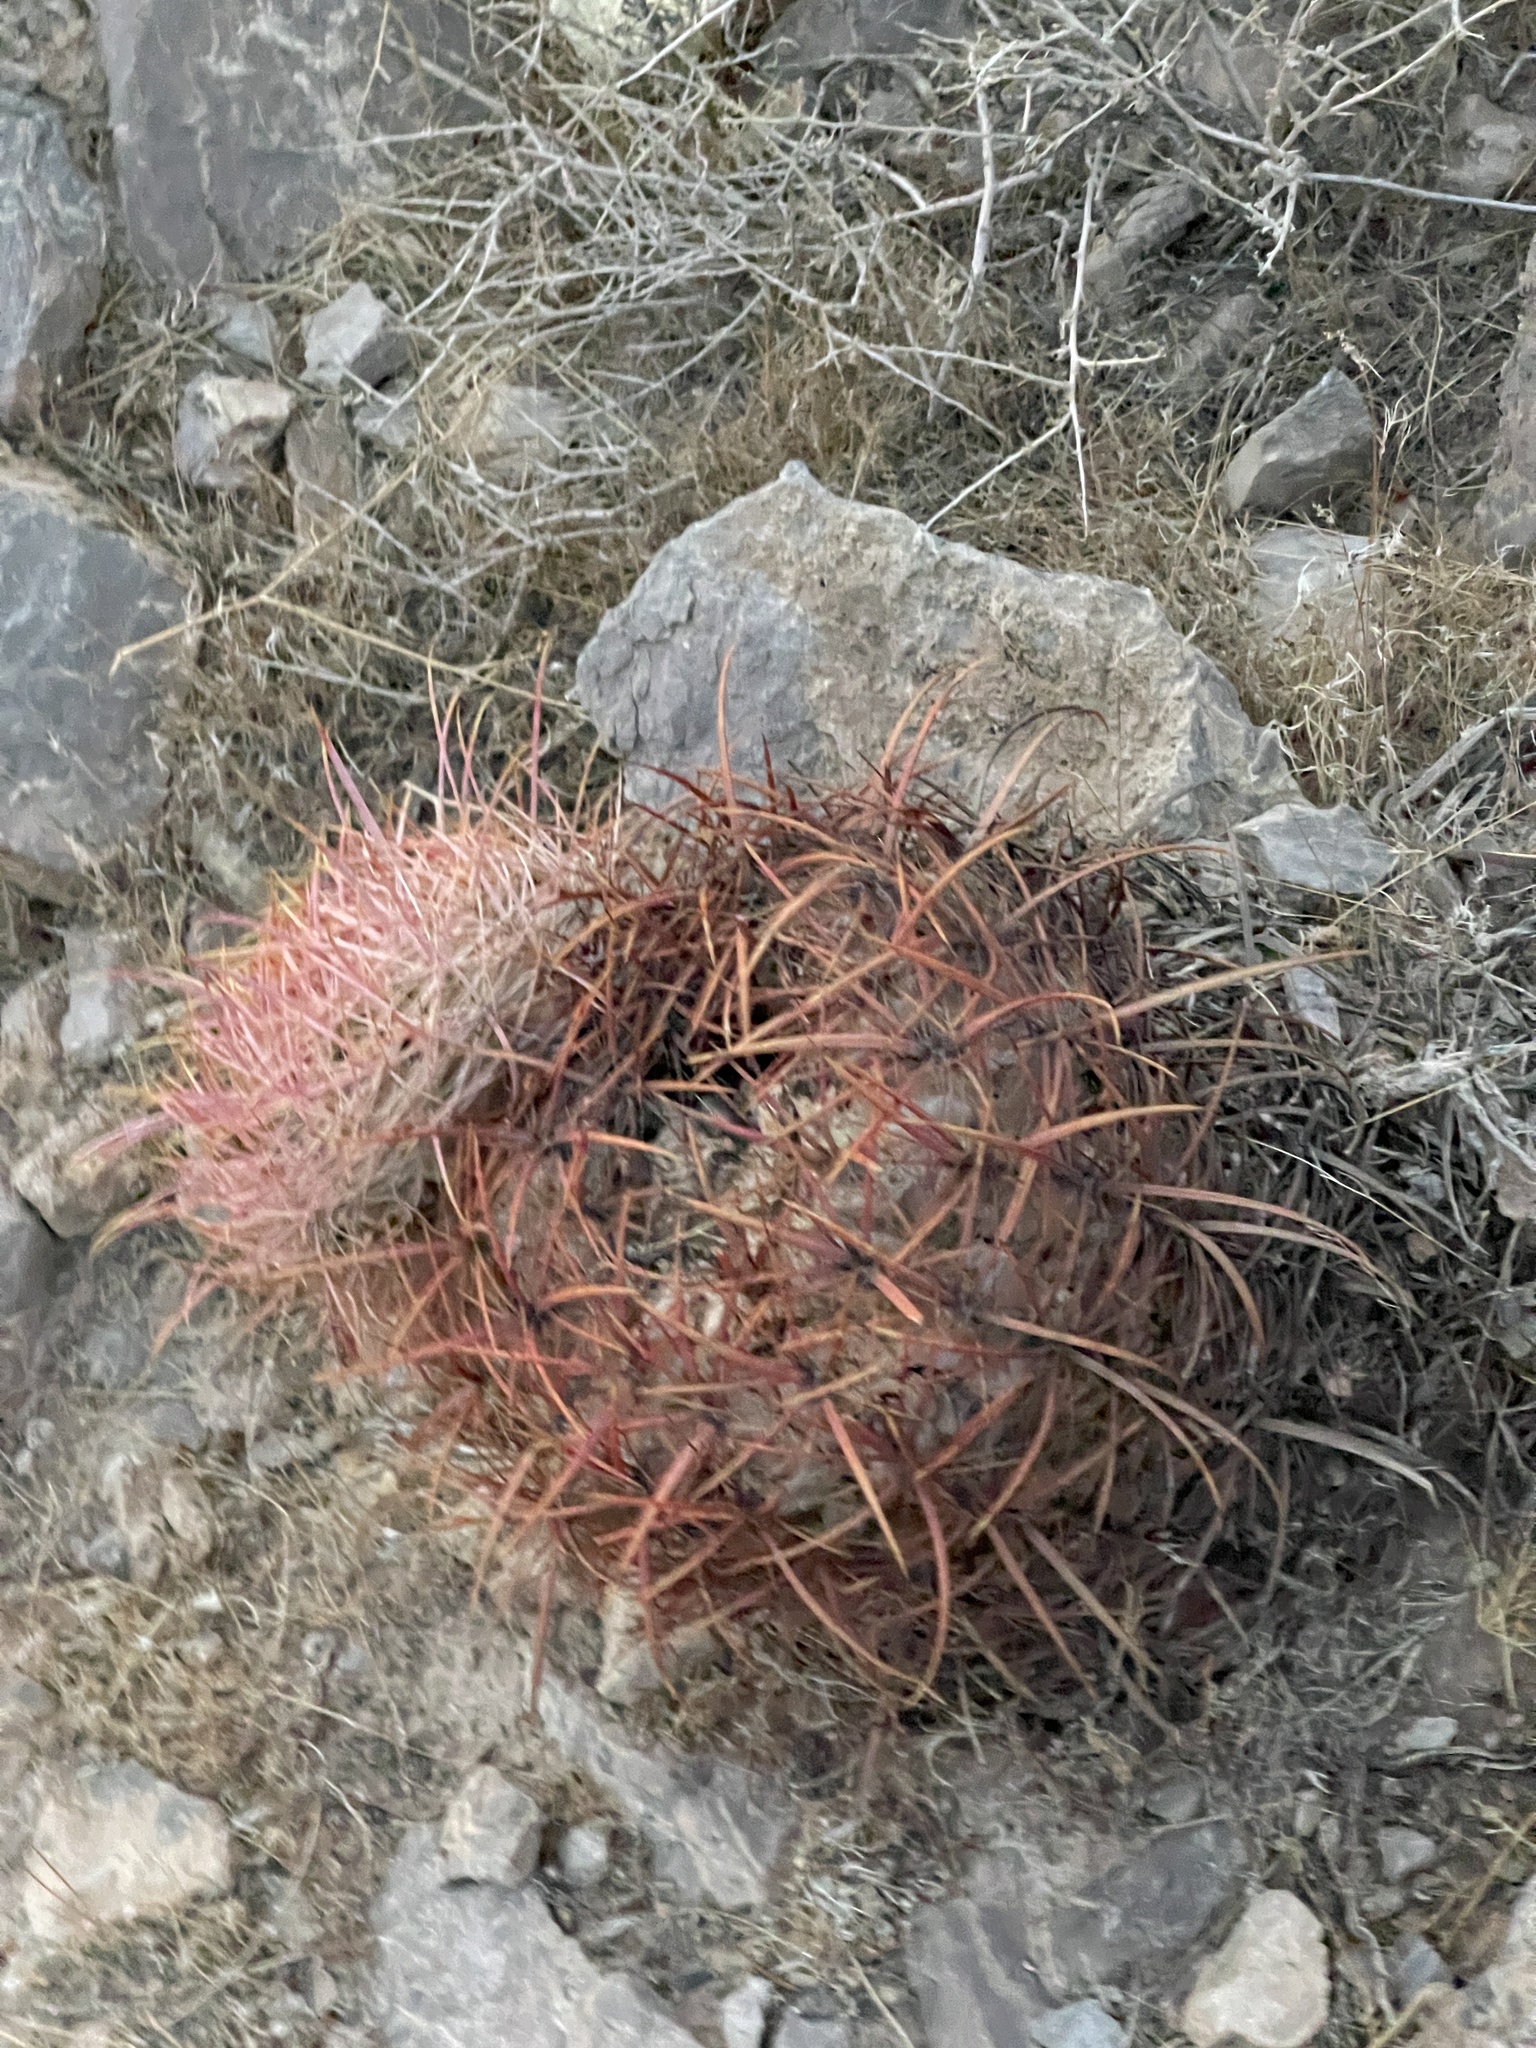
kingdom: Plantae
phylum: Tracheophyta
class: Magnoliopsida
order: Caryophyllales
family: Cactaceae
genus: Ferocactus
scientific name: Ferocactus cylindraceus
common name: California barrel cactus
